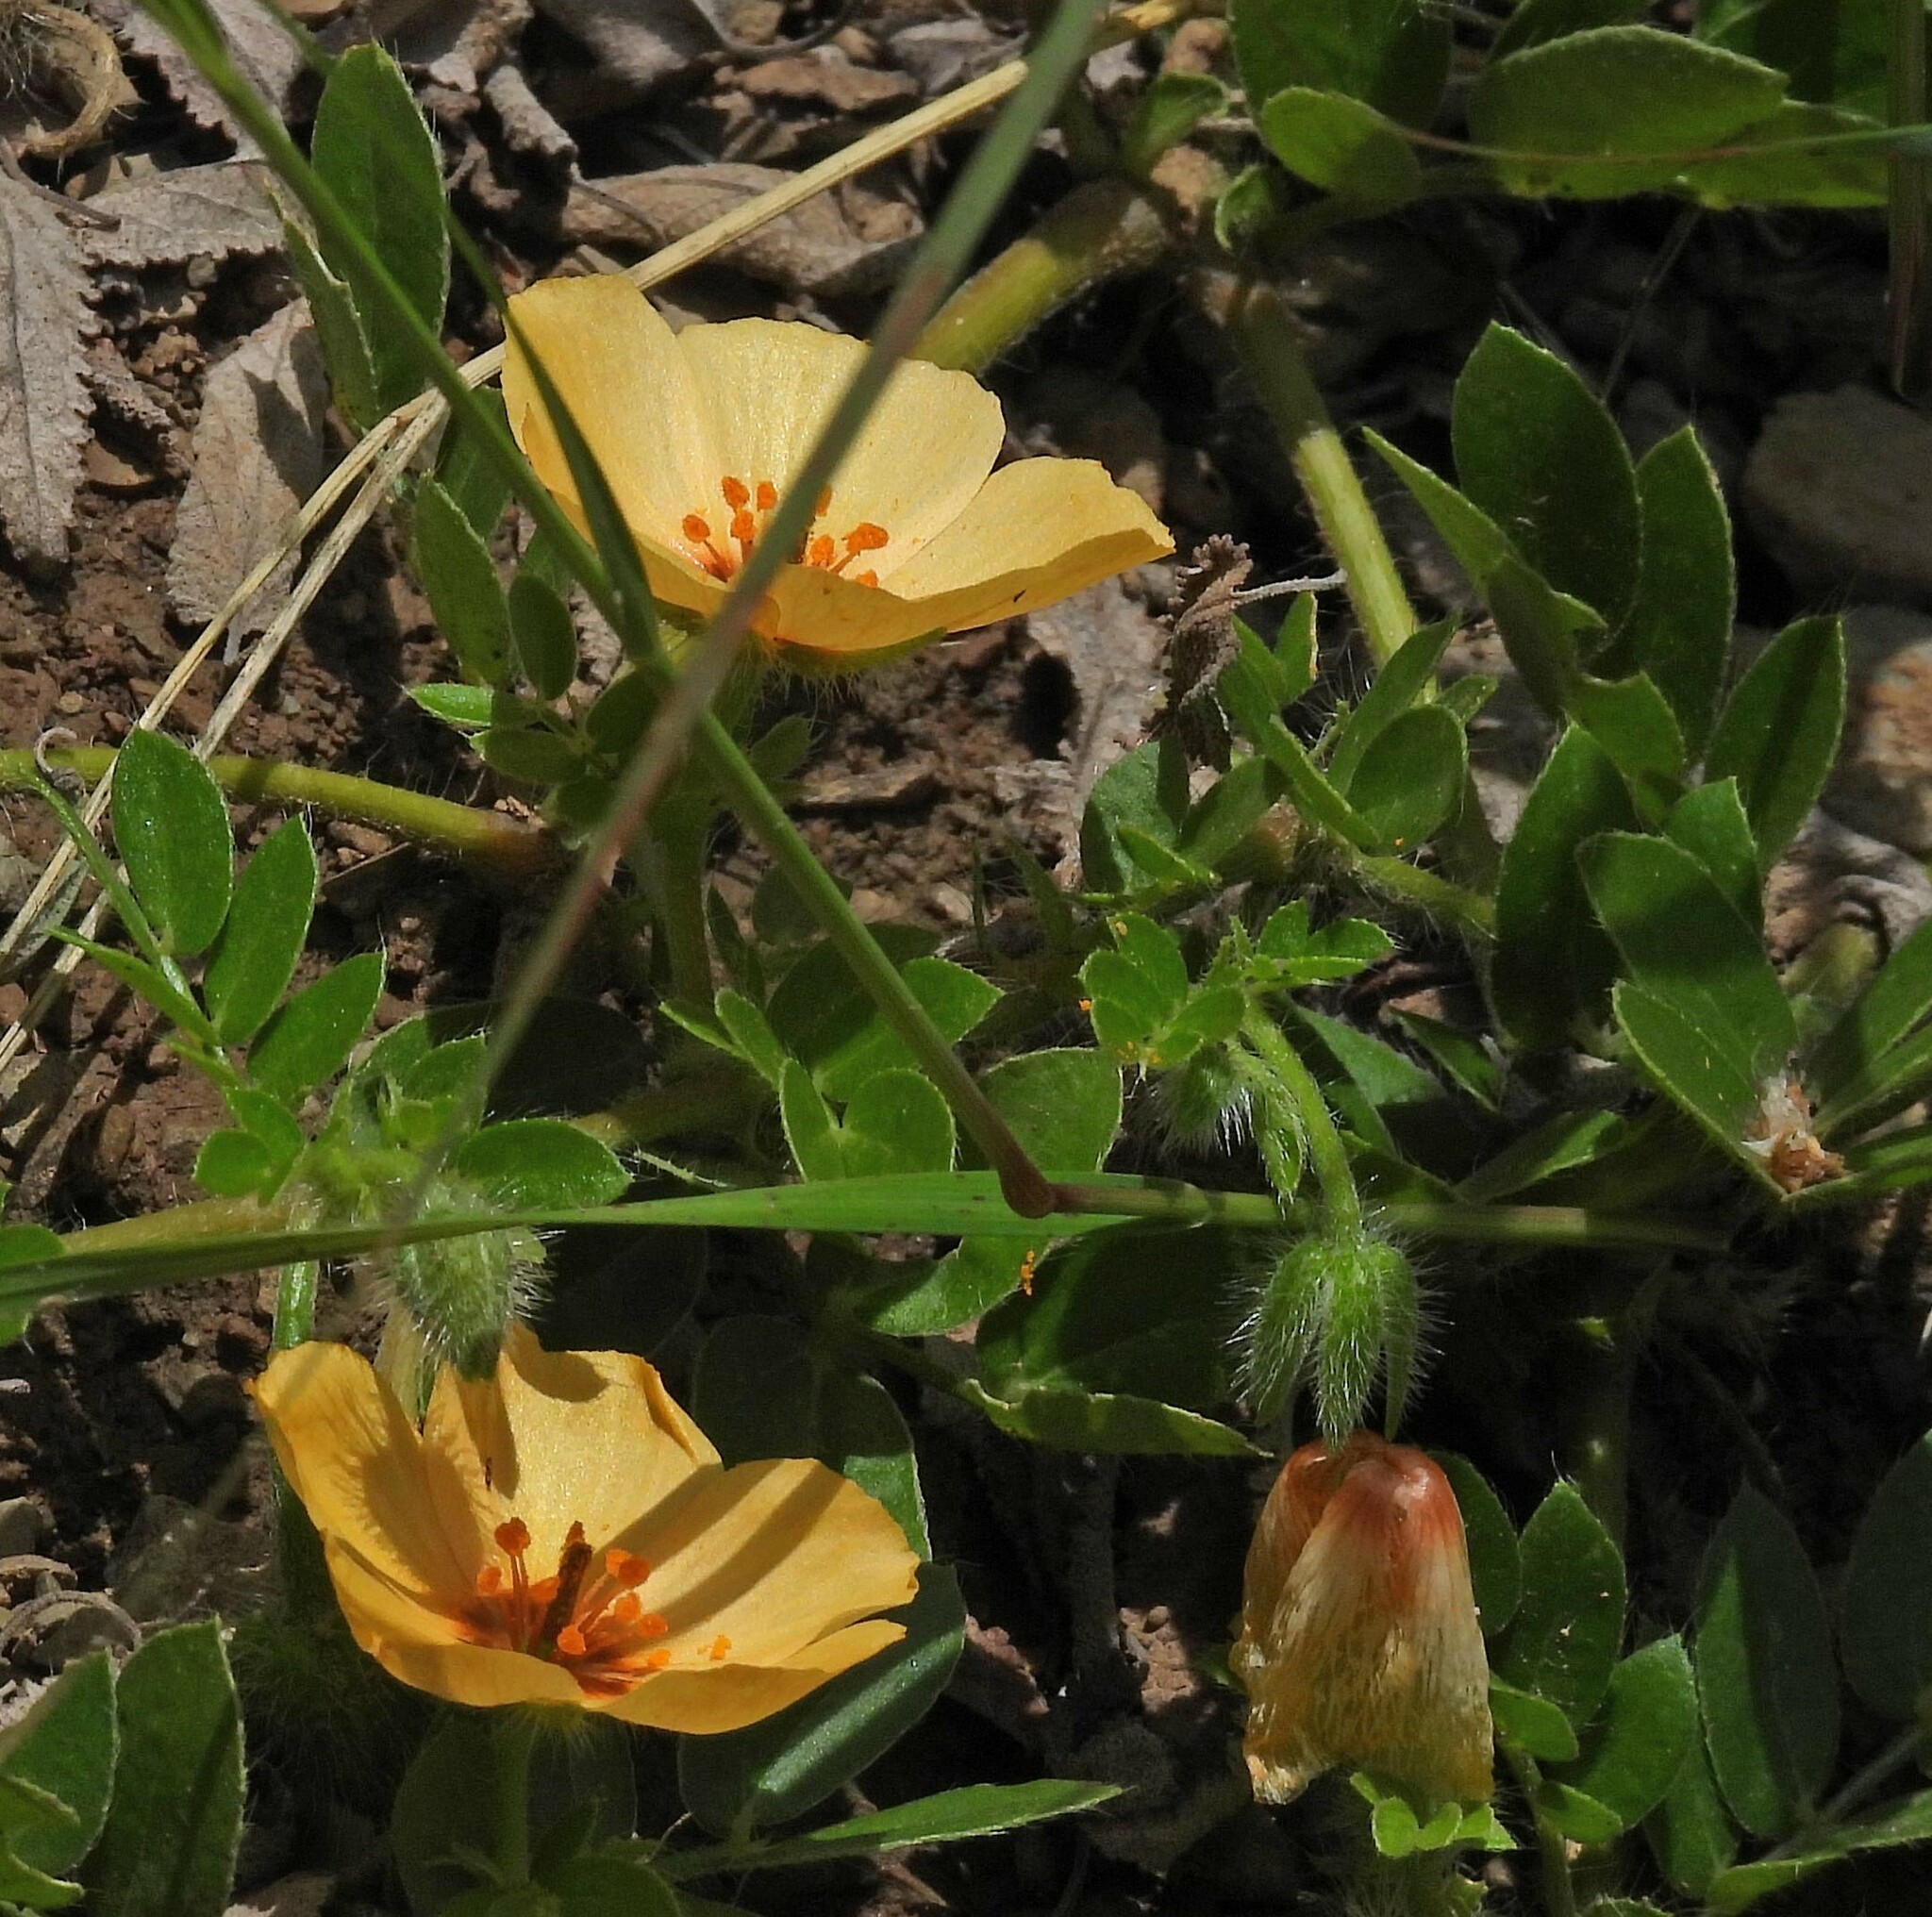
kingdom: Plantae
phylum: Tracheophyta
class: Magnoliopsida
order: Zygophyllales
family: Zygophyllaceae
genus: Kallstroemia
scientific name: Kallstroemia maxima
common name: Big caltropa
